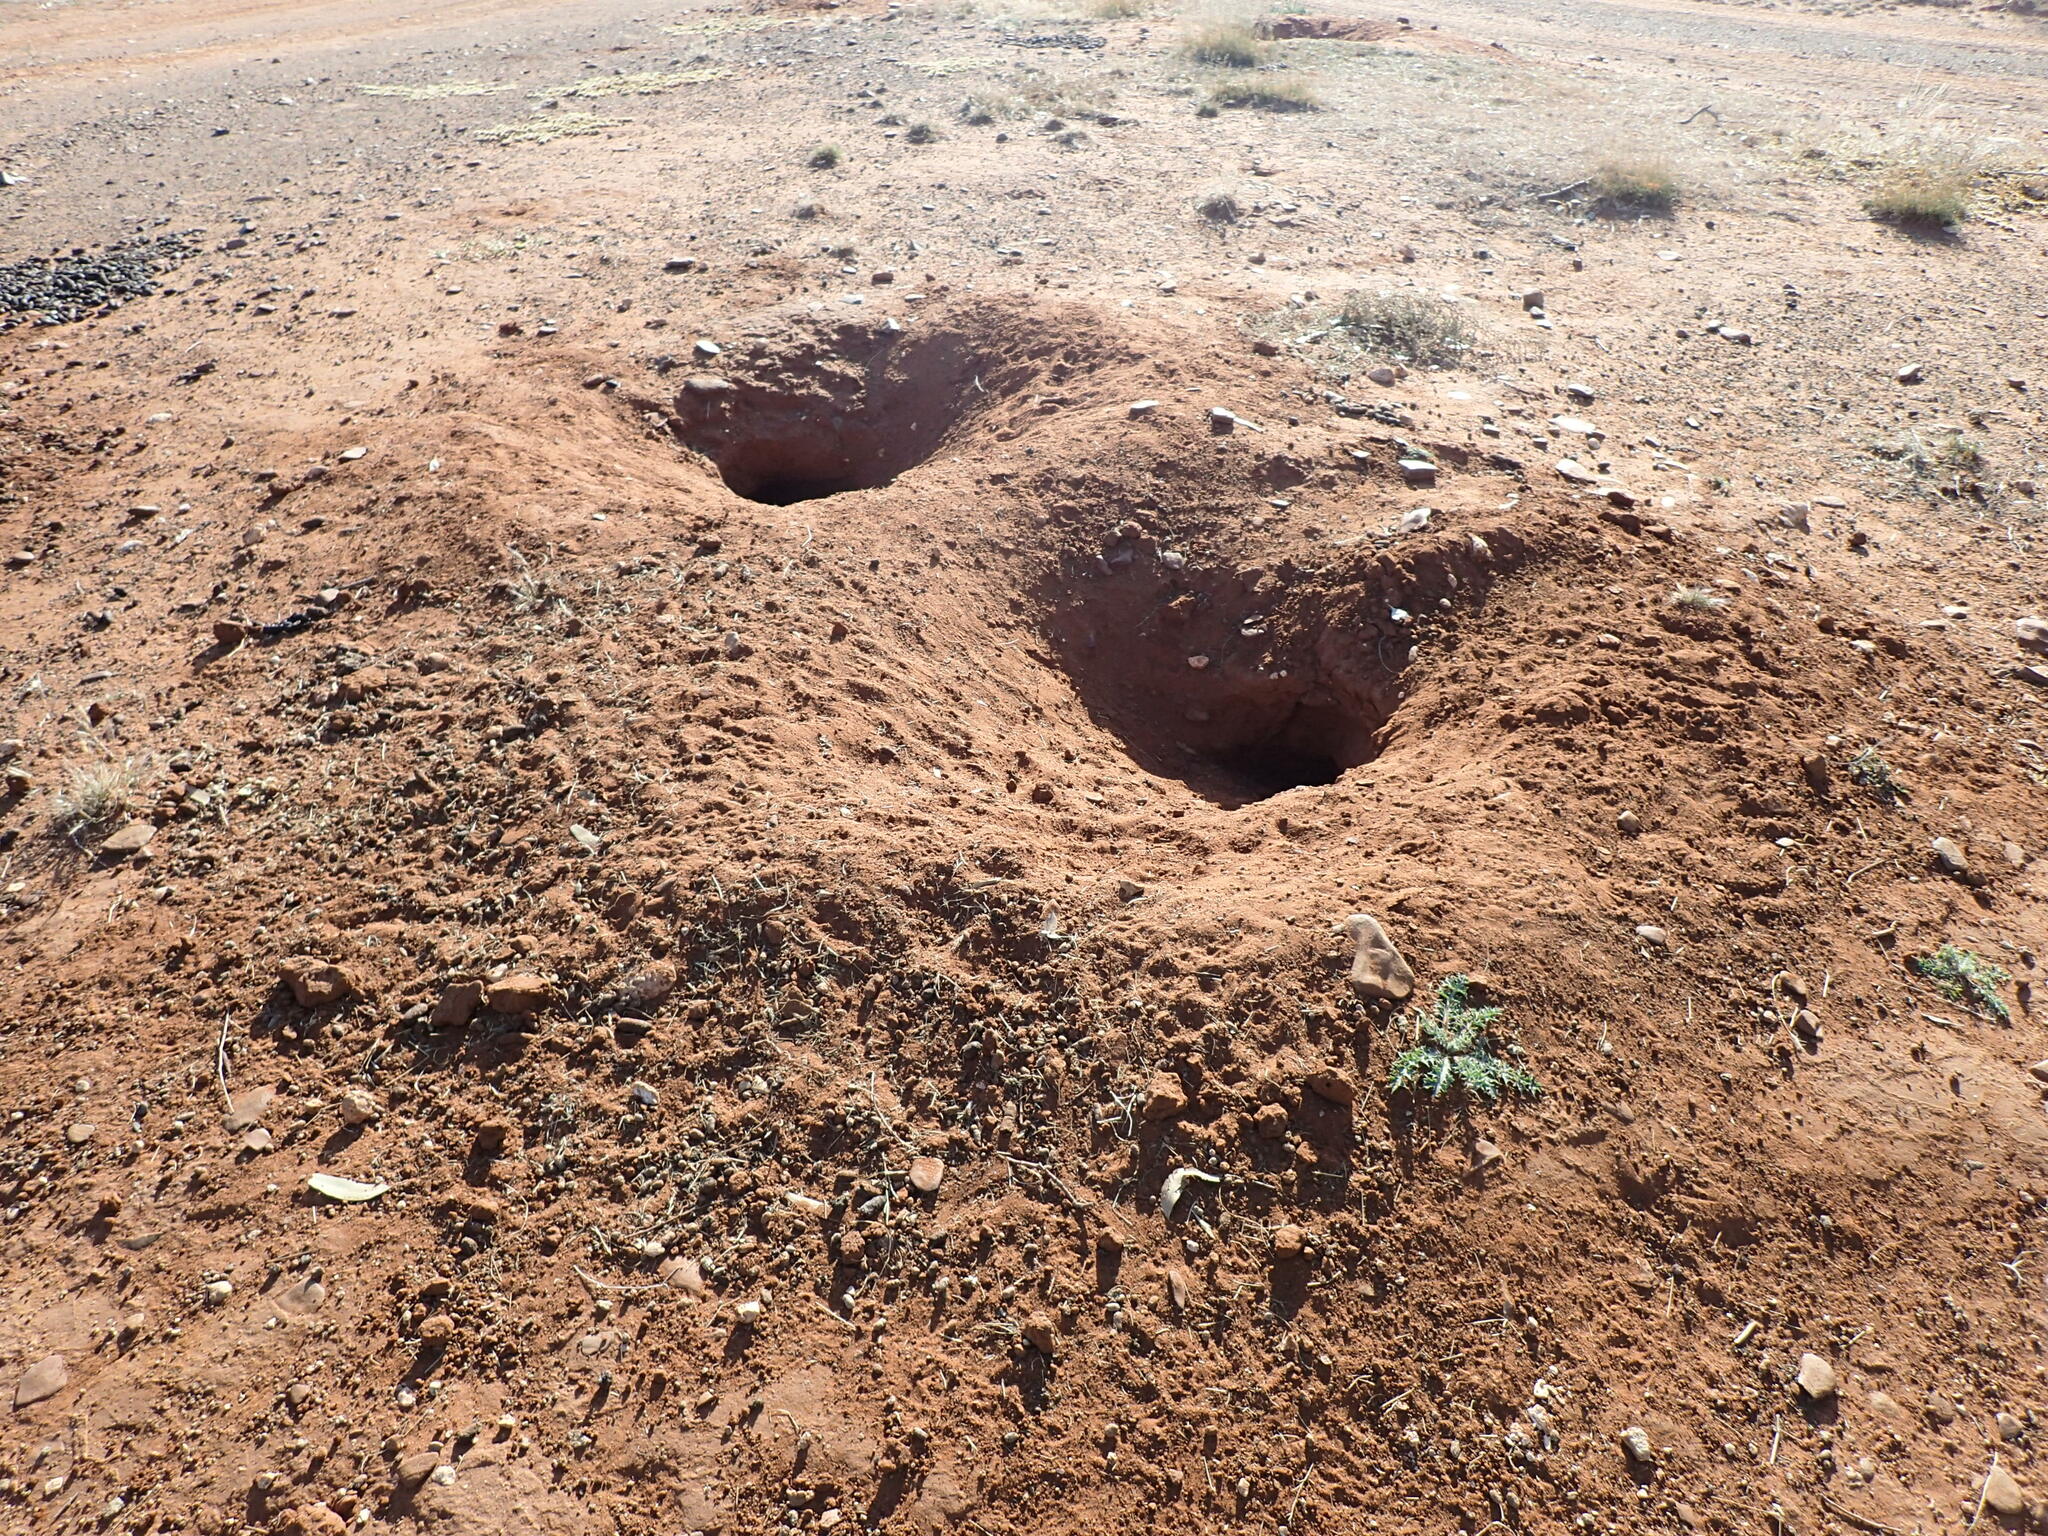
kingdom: Animalia
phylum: Chordata
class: Mammalia
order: Rodentia
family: Sciuridae
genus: Xerus
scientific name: Xerus inauris
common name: South african ground squirrel
